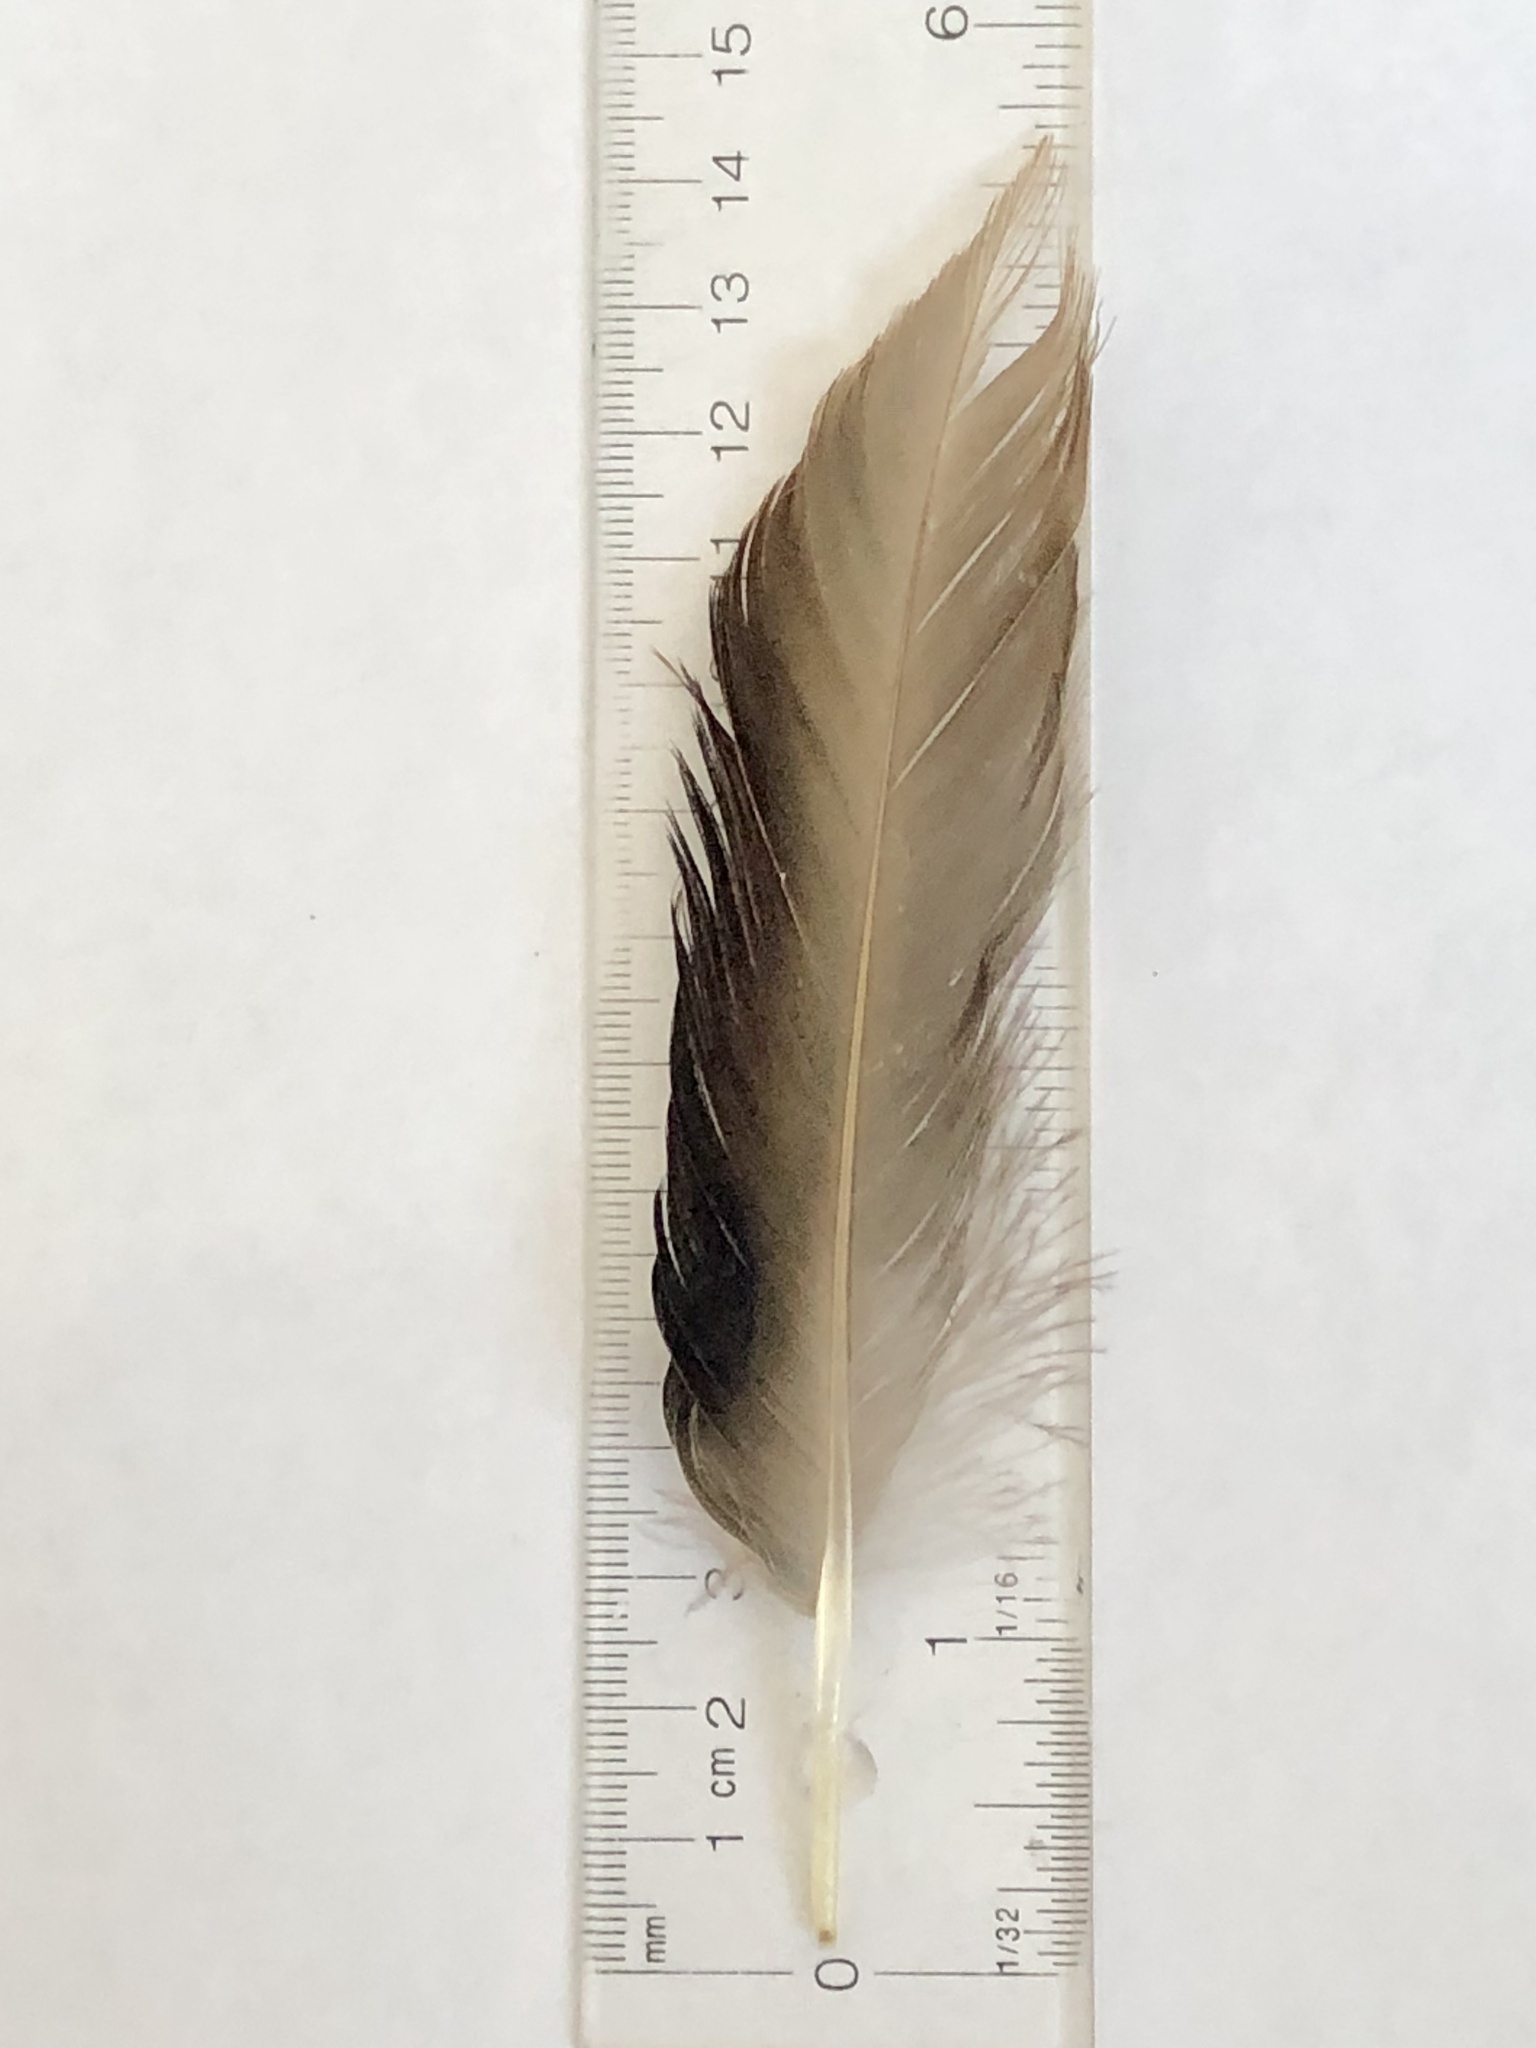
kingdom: Animalia
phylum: Chordata
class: Aves
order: Anseriformes
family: Anatidae
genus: Anas
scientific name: Anas platyrhynchos
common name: Mallard
